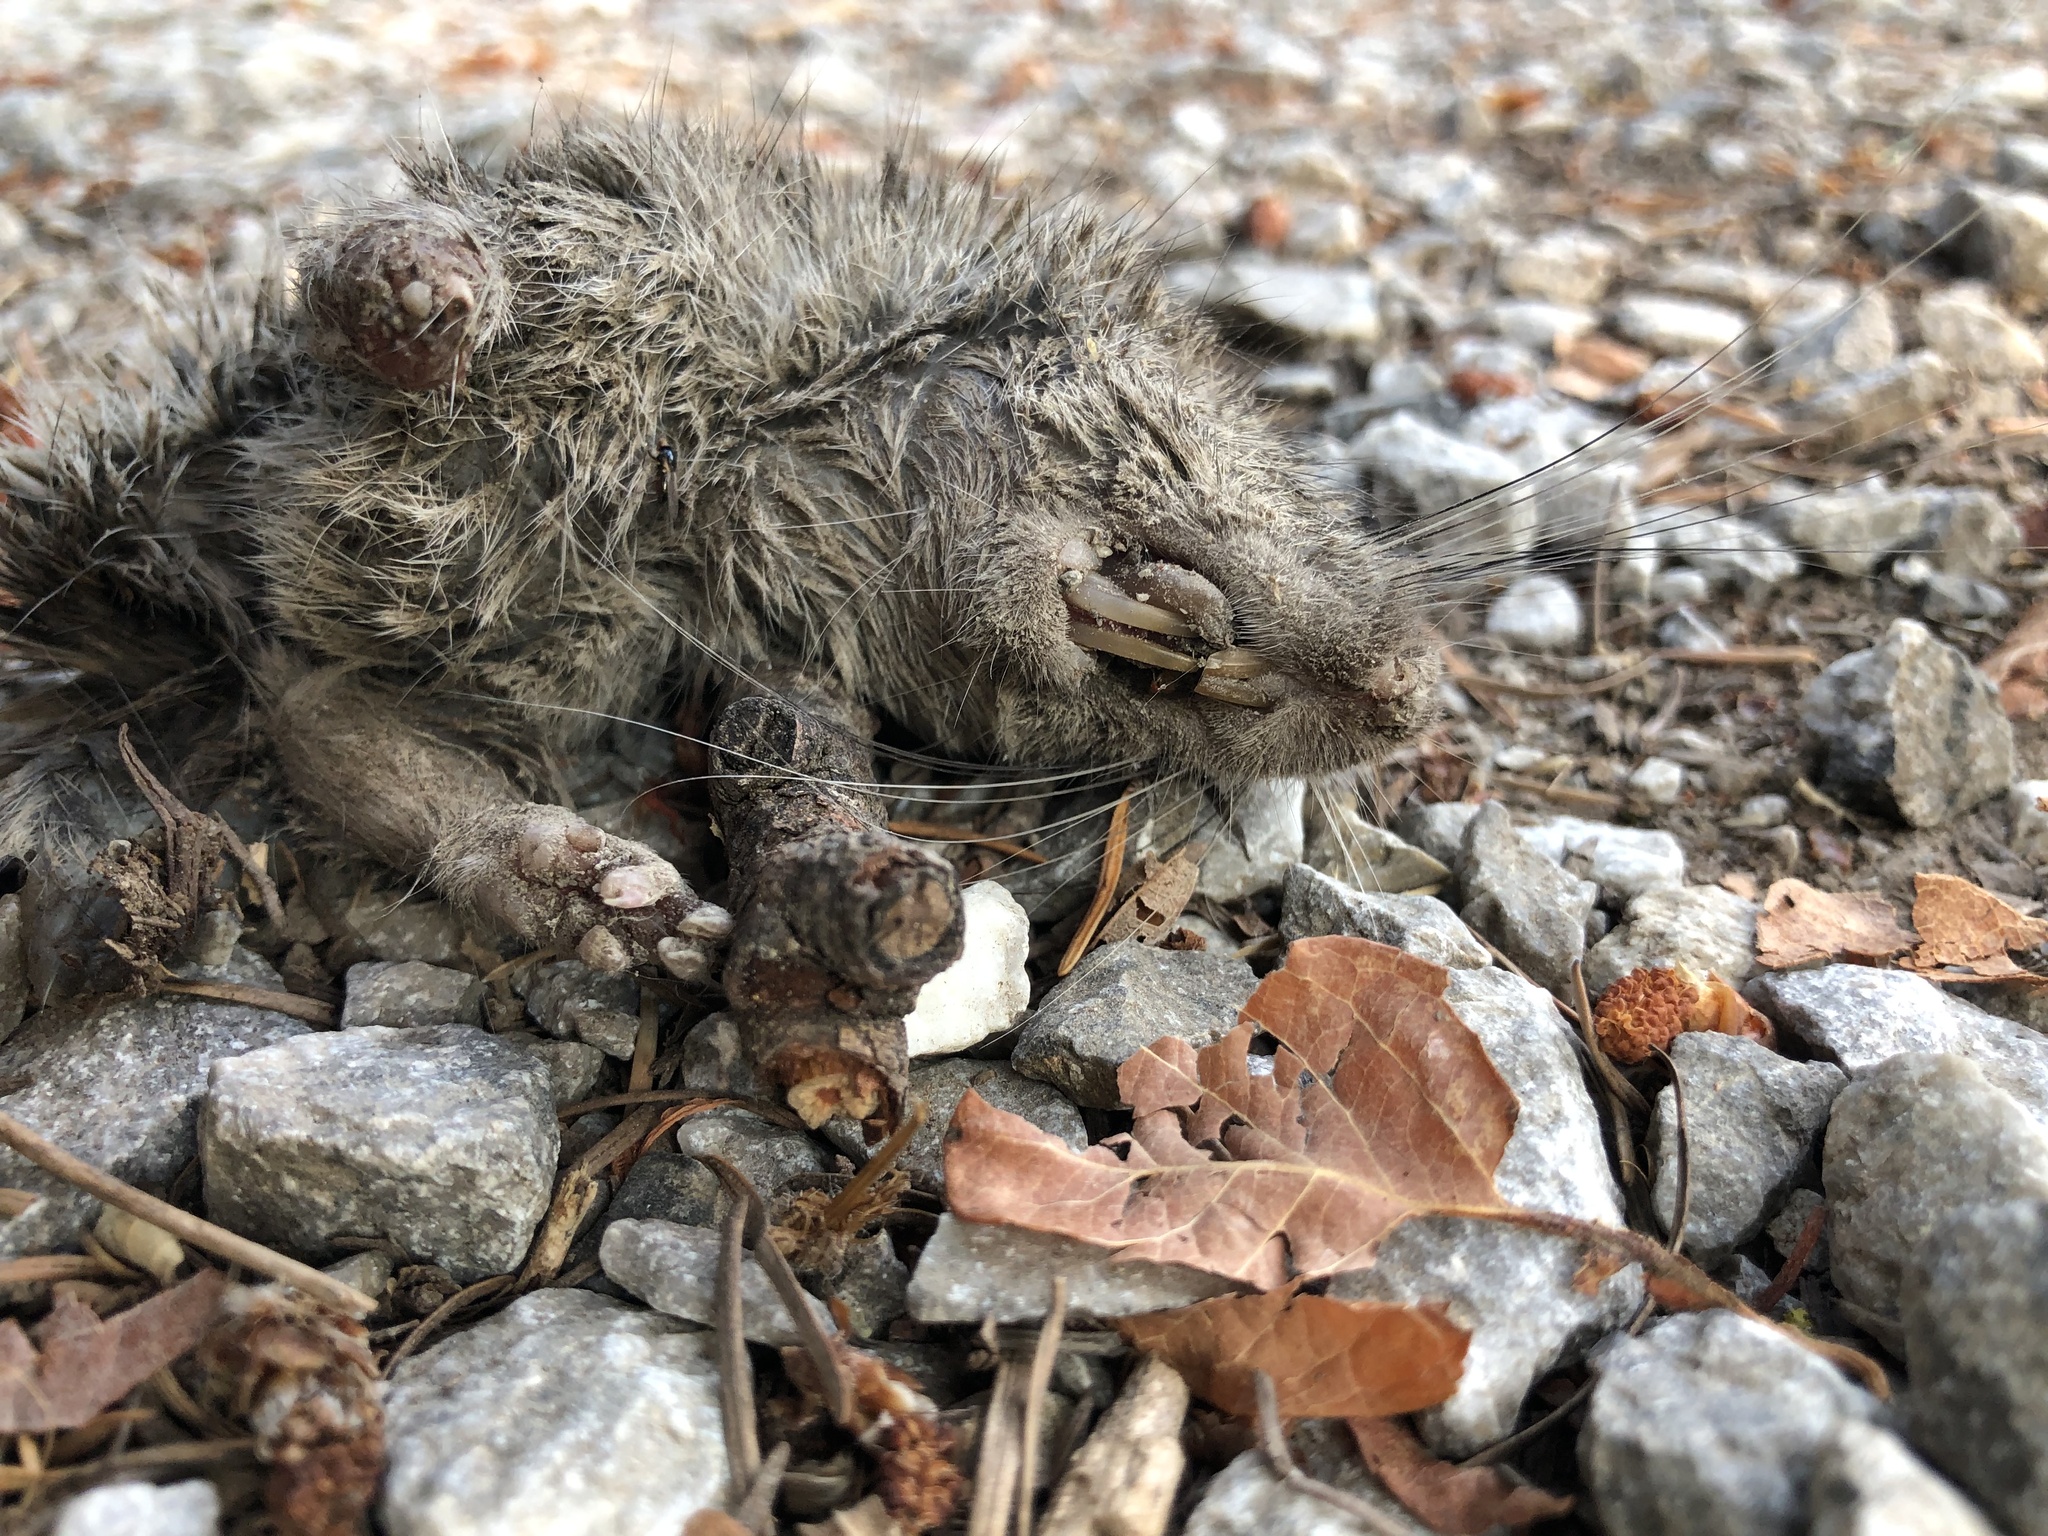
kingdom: Animalia
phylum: Chordata
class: Mammalia
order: Rodentia
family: Muridae
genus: Rattus
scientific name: Rattus norvegicus
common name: Brown rat
